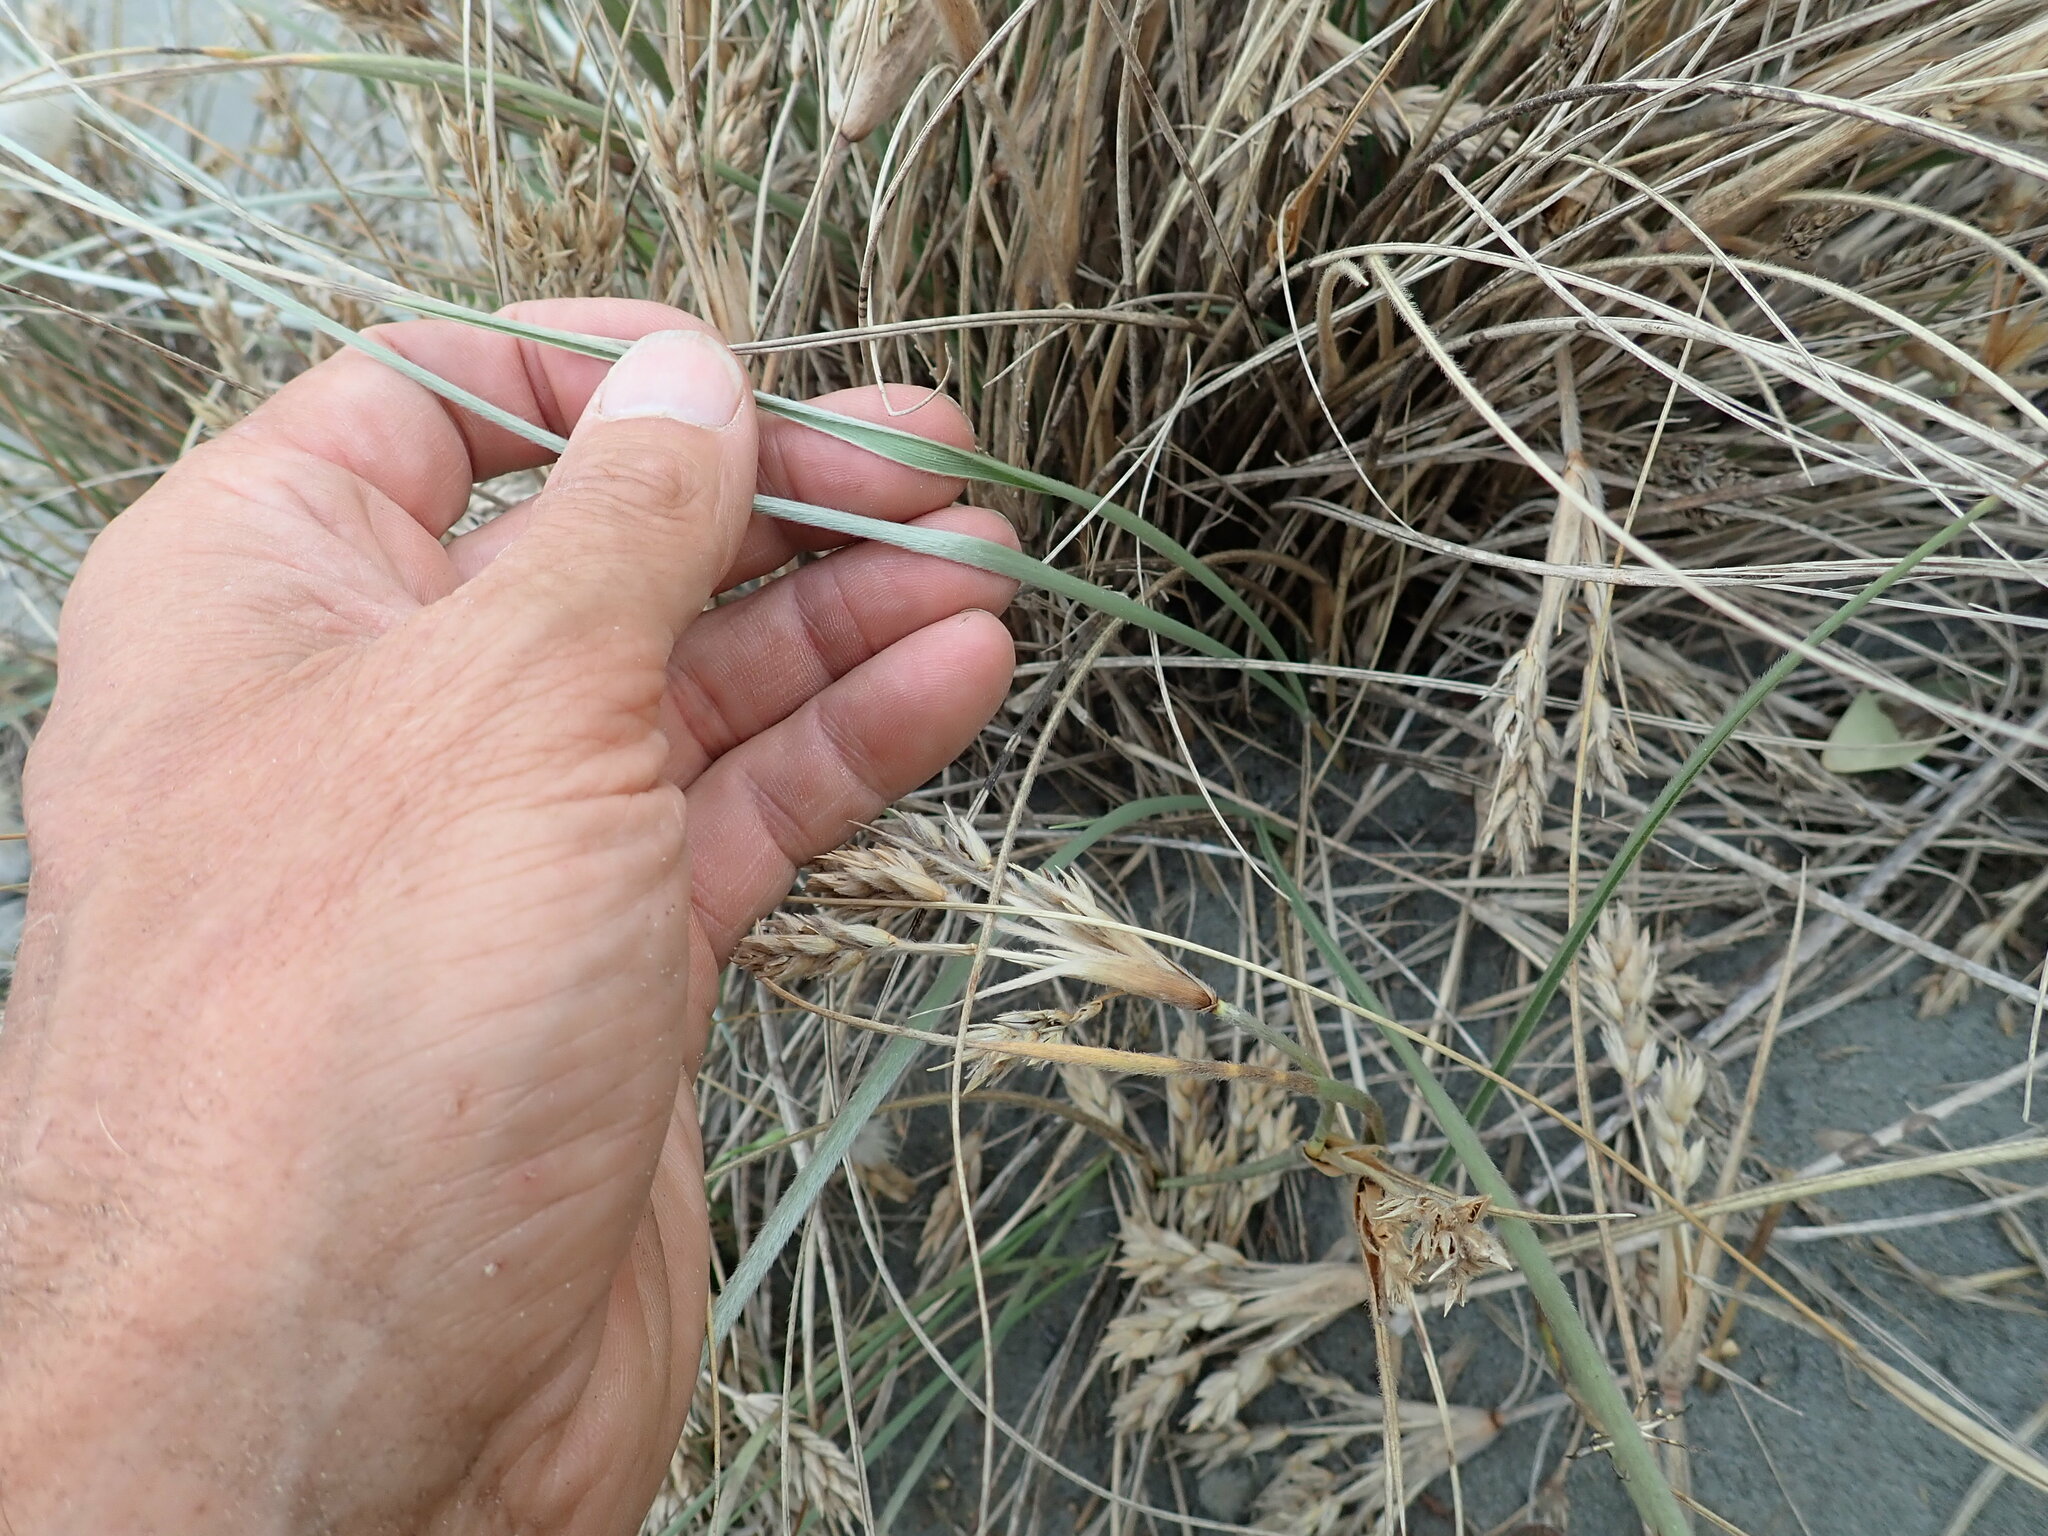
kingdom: Plantae
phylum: Tracheophyta
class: Liliopsida
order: Poales
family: Poaceae
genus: Spinifex
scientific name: Spinifex sericeus
